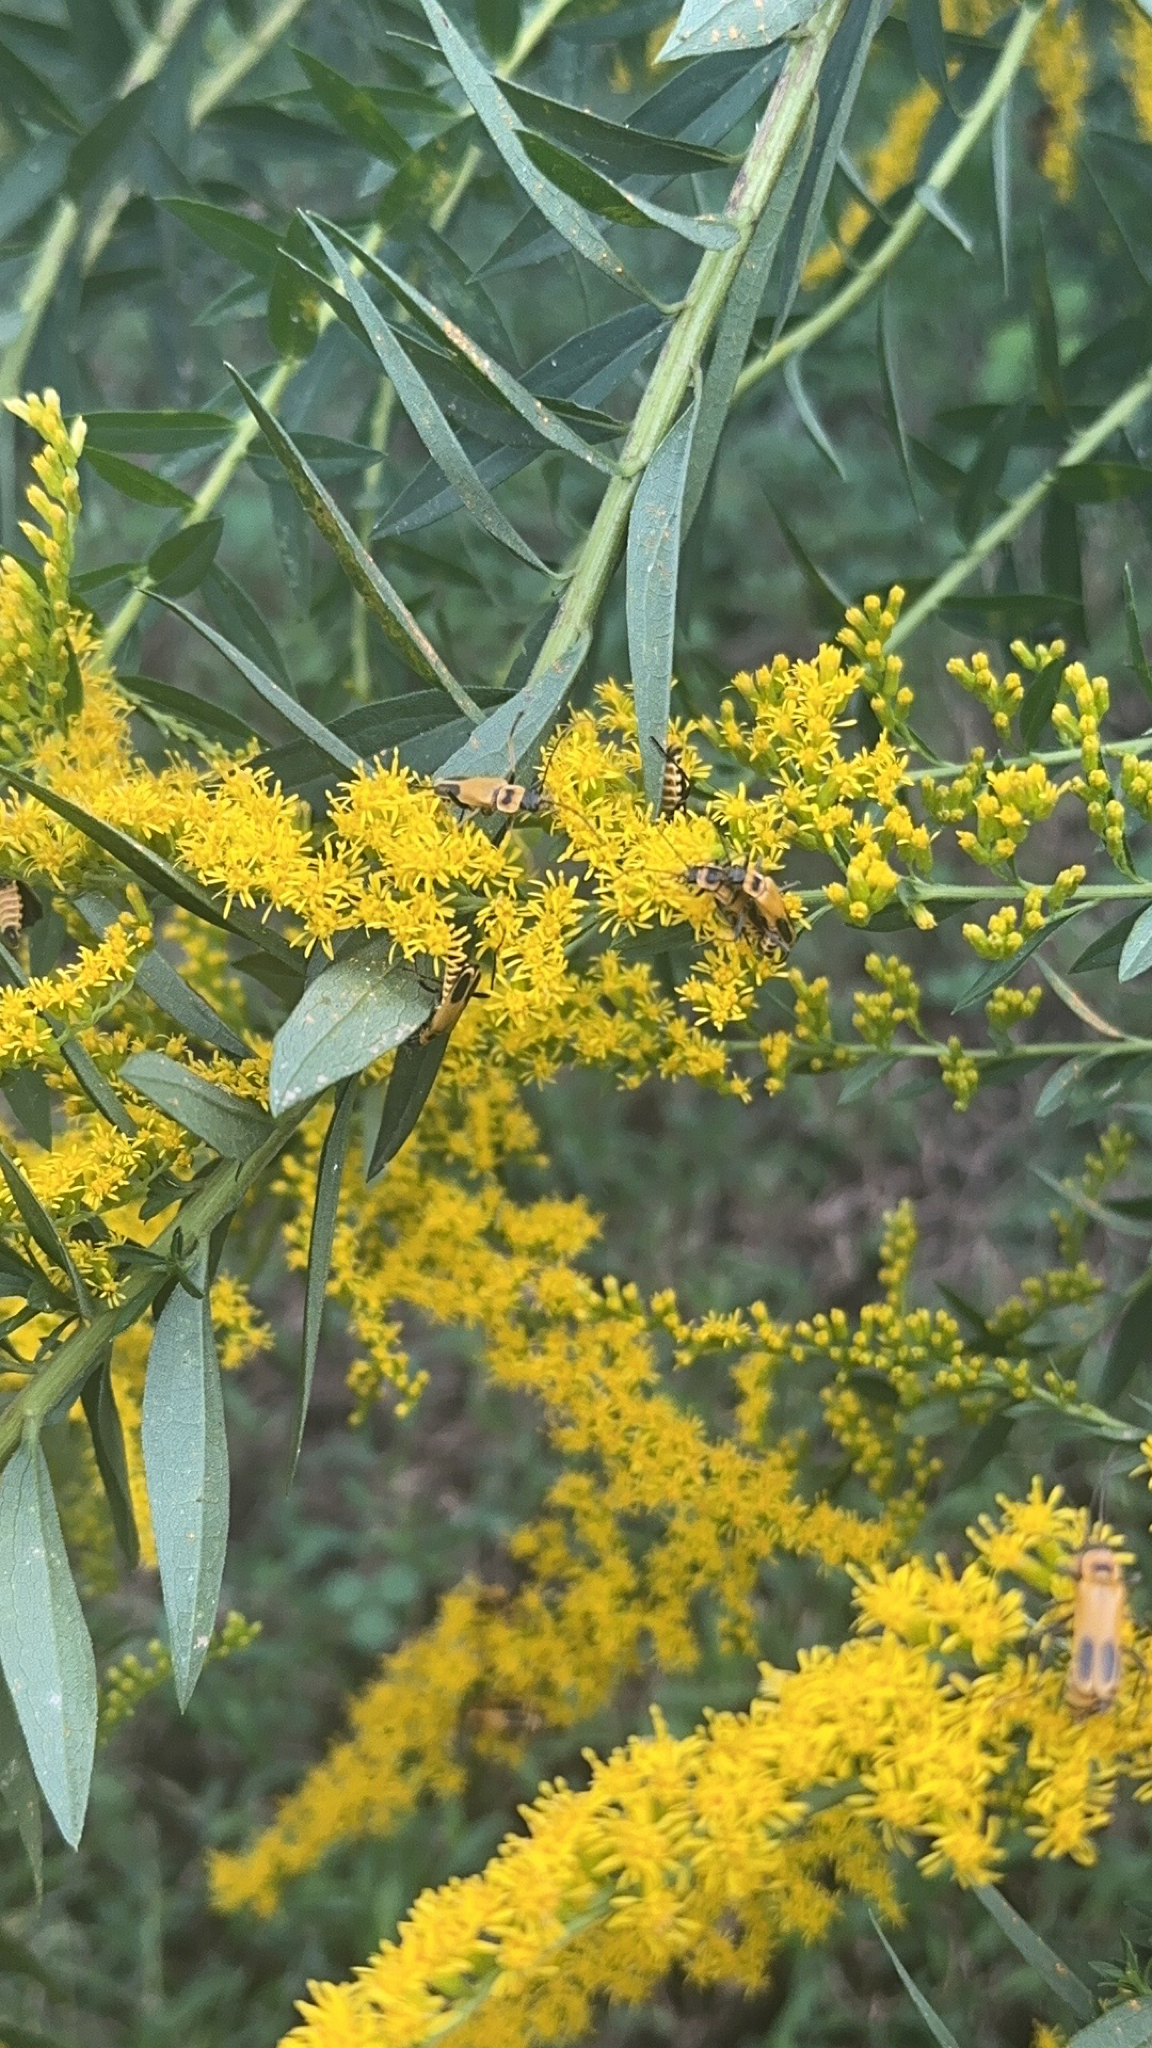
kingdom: Animalia
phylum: Arthropoda
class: Insecta
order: Coleoptera
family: Cantharidae
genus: Chauliognathus
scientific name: Chauliognathus pensylvanicus
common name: Goldenrod soldier beetle
